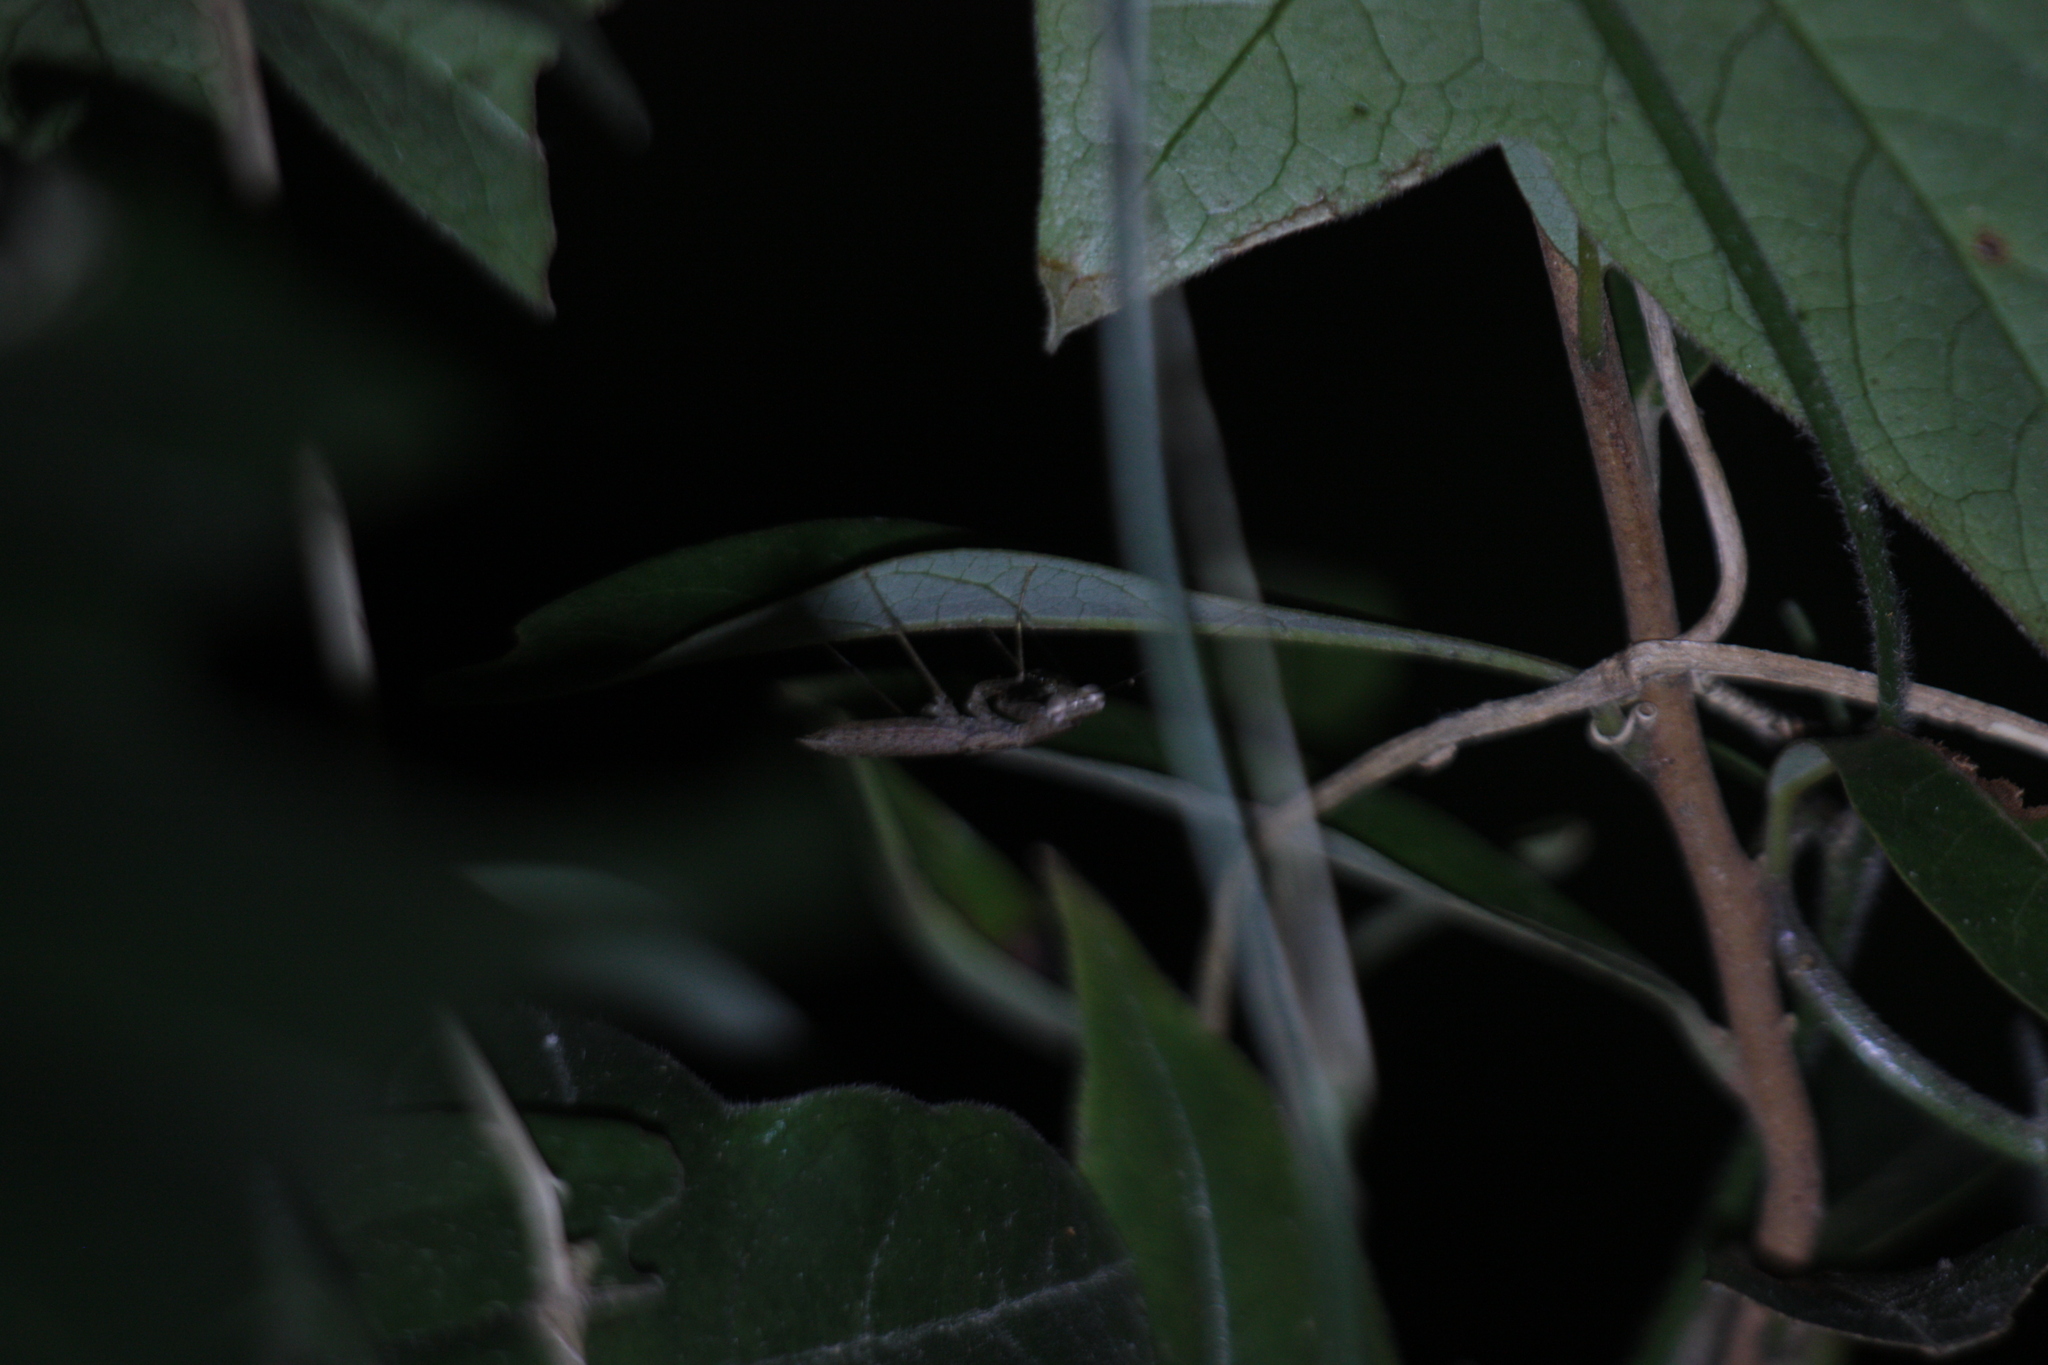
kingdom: Animalia
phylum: Arthropoda
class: Insecta
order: Mantodea
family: Gonypetidae
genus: Amantis
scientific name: Amantis nawai
